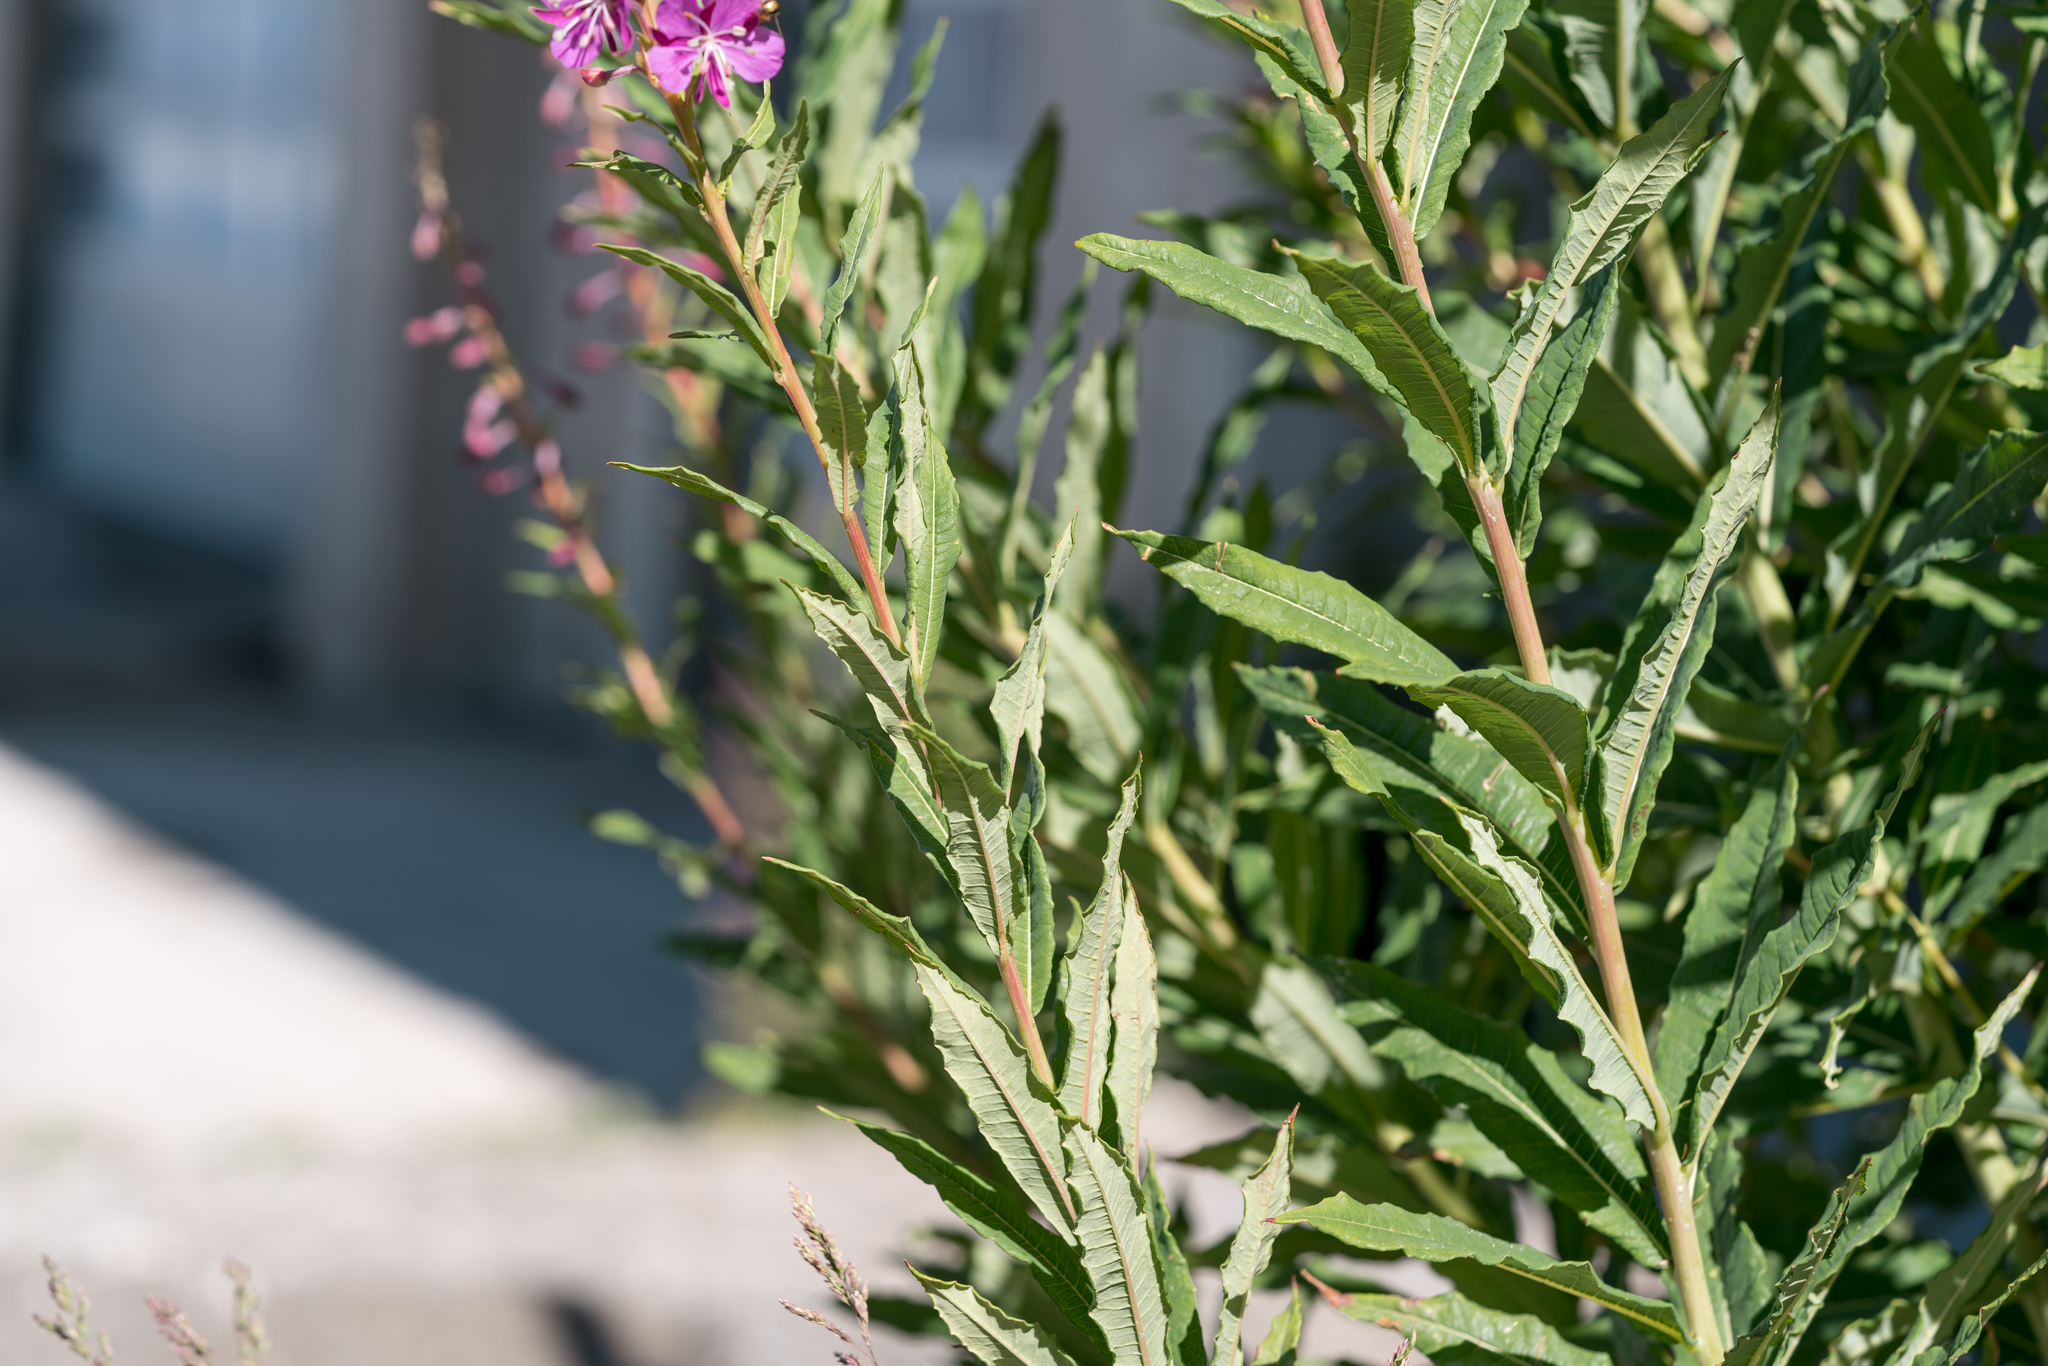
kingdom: Plantae
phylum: Tracheophyta
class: Magnoliopsida
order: Myrtales
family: Onagraceae
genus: Chamaenerion
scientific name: Chamaenerion angustifolium
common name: Fireweed
